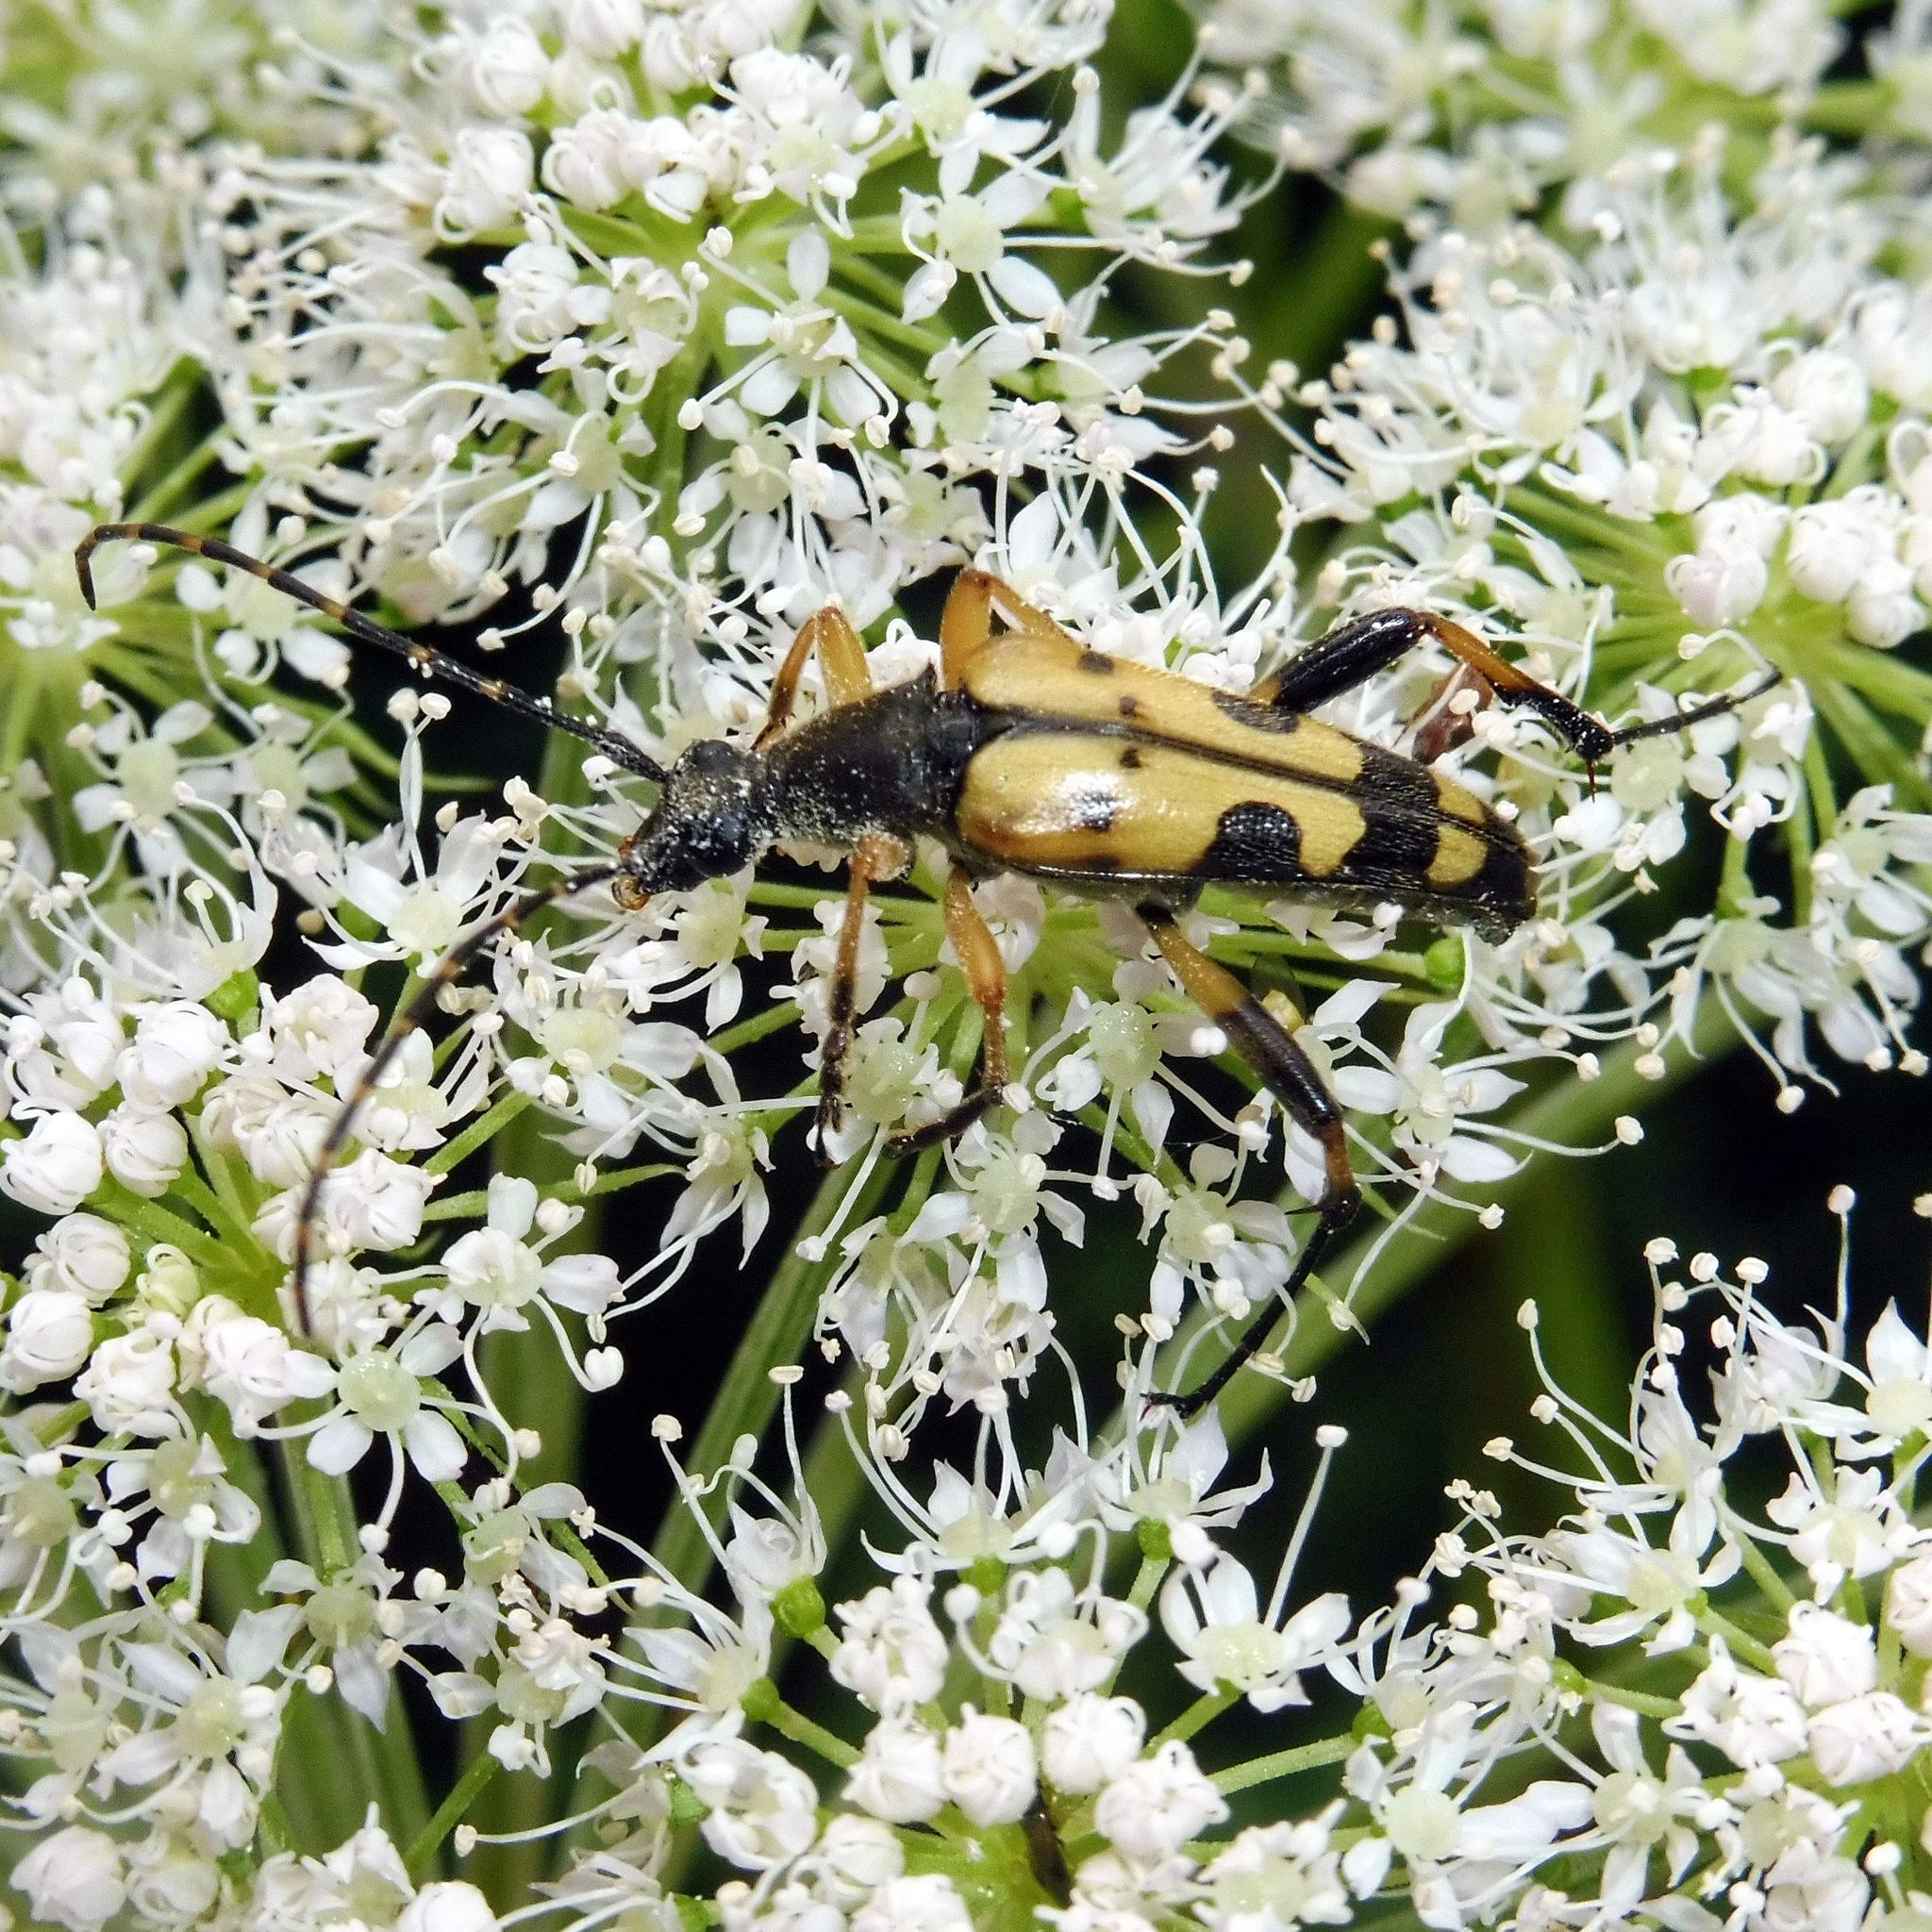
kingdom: Animalia
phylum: Arthropoda
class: Insecta
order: Coleoptera
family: Cerambycidae
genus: Rutpela
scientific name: Rutpela maculata
